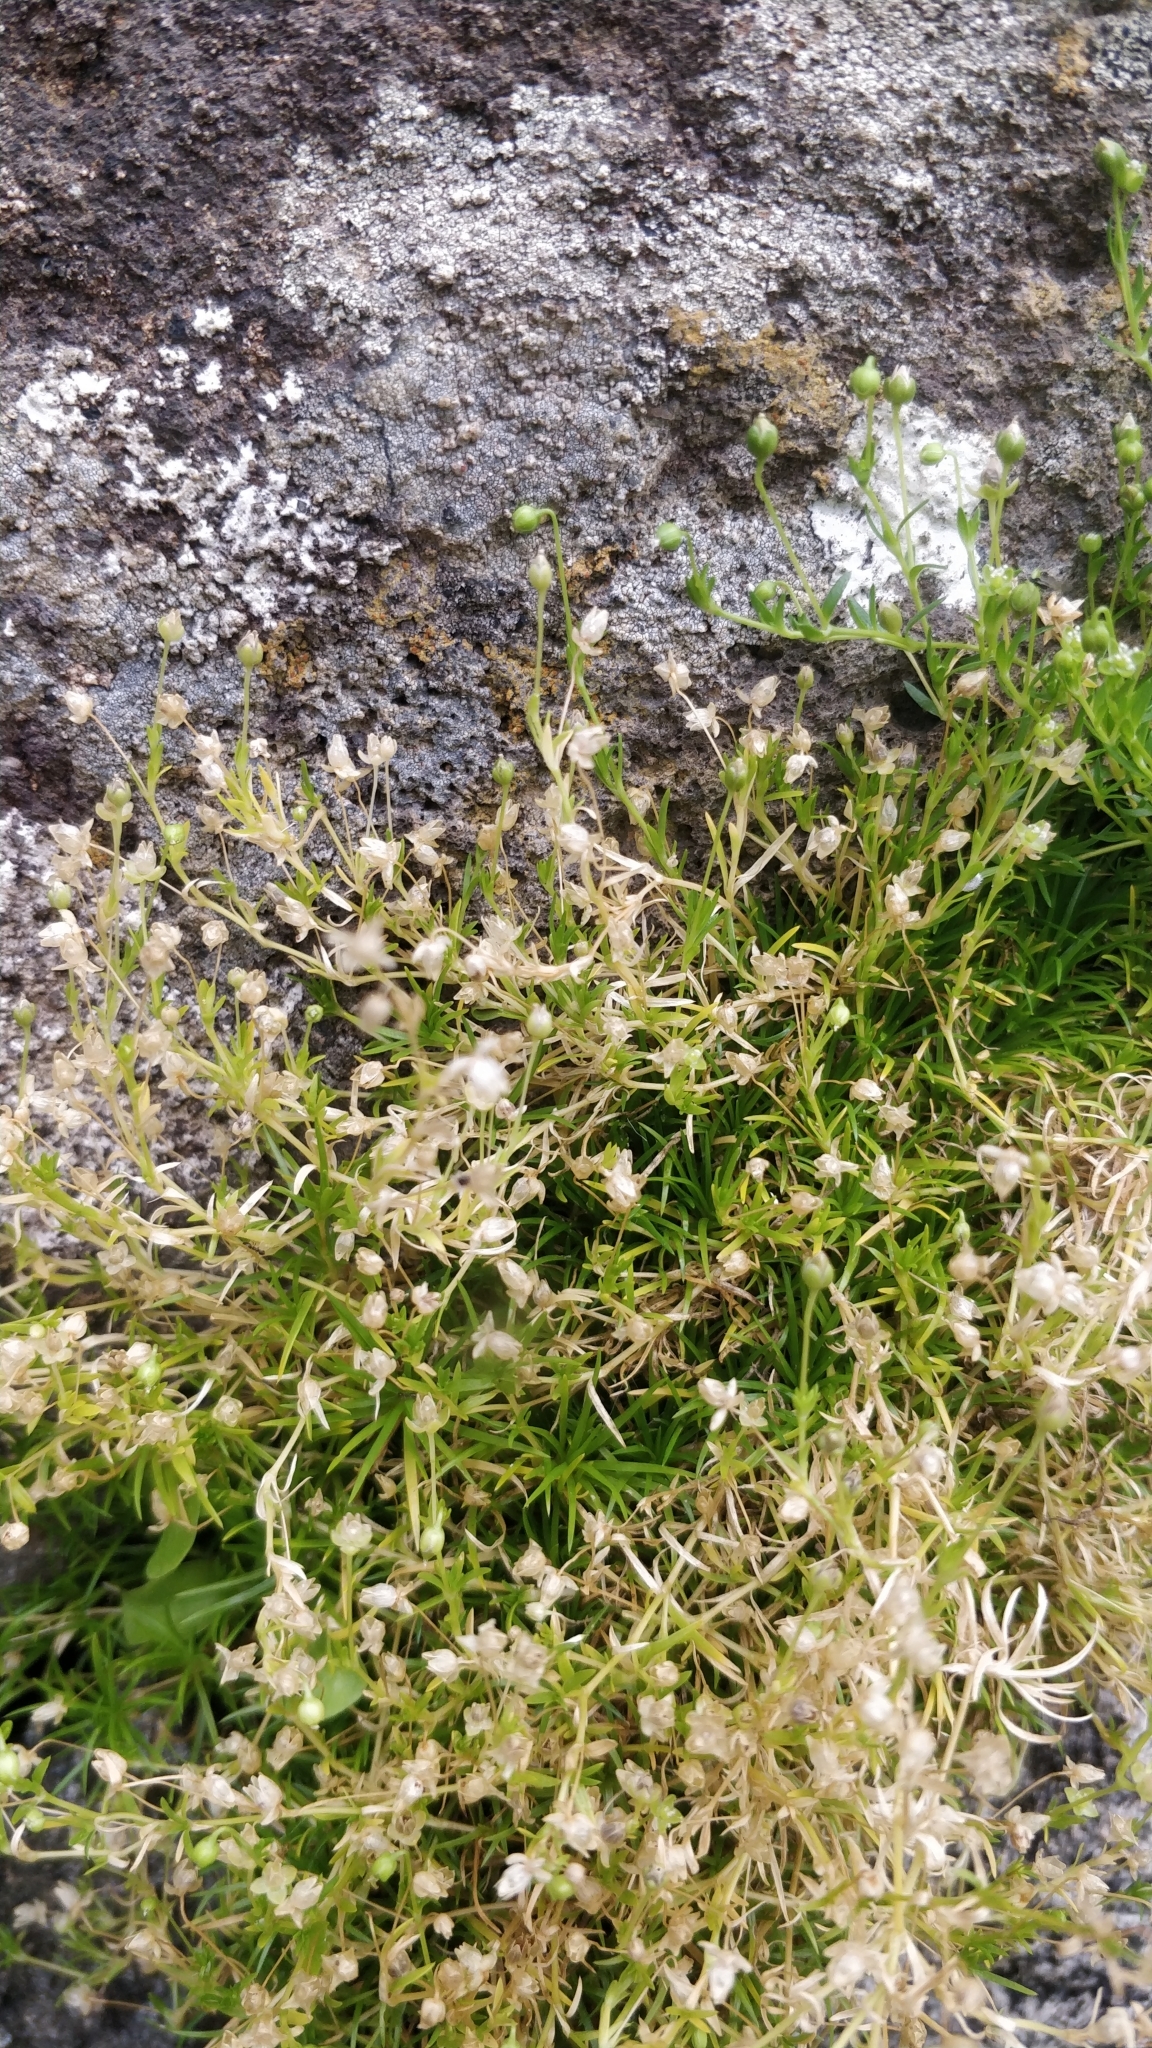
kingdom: Plantae
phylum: Tracheophyta
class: Magnoliopsida
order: Caryophyllales
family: Caryophyllaceae
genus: Sagina
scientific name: Sagina procumbens
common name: Procumbent pearlwort
